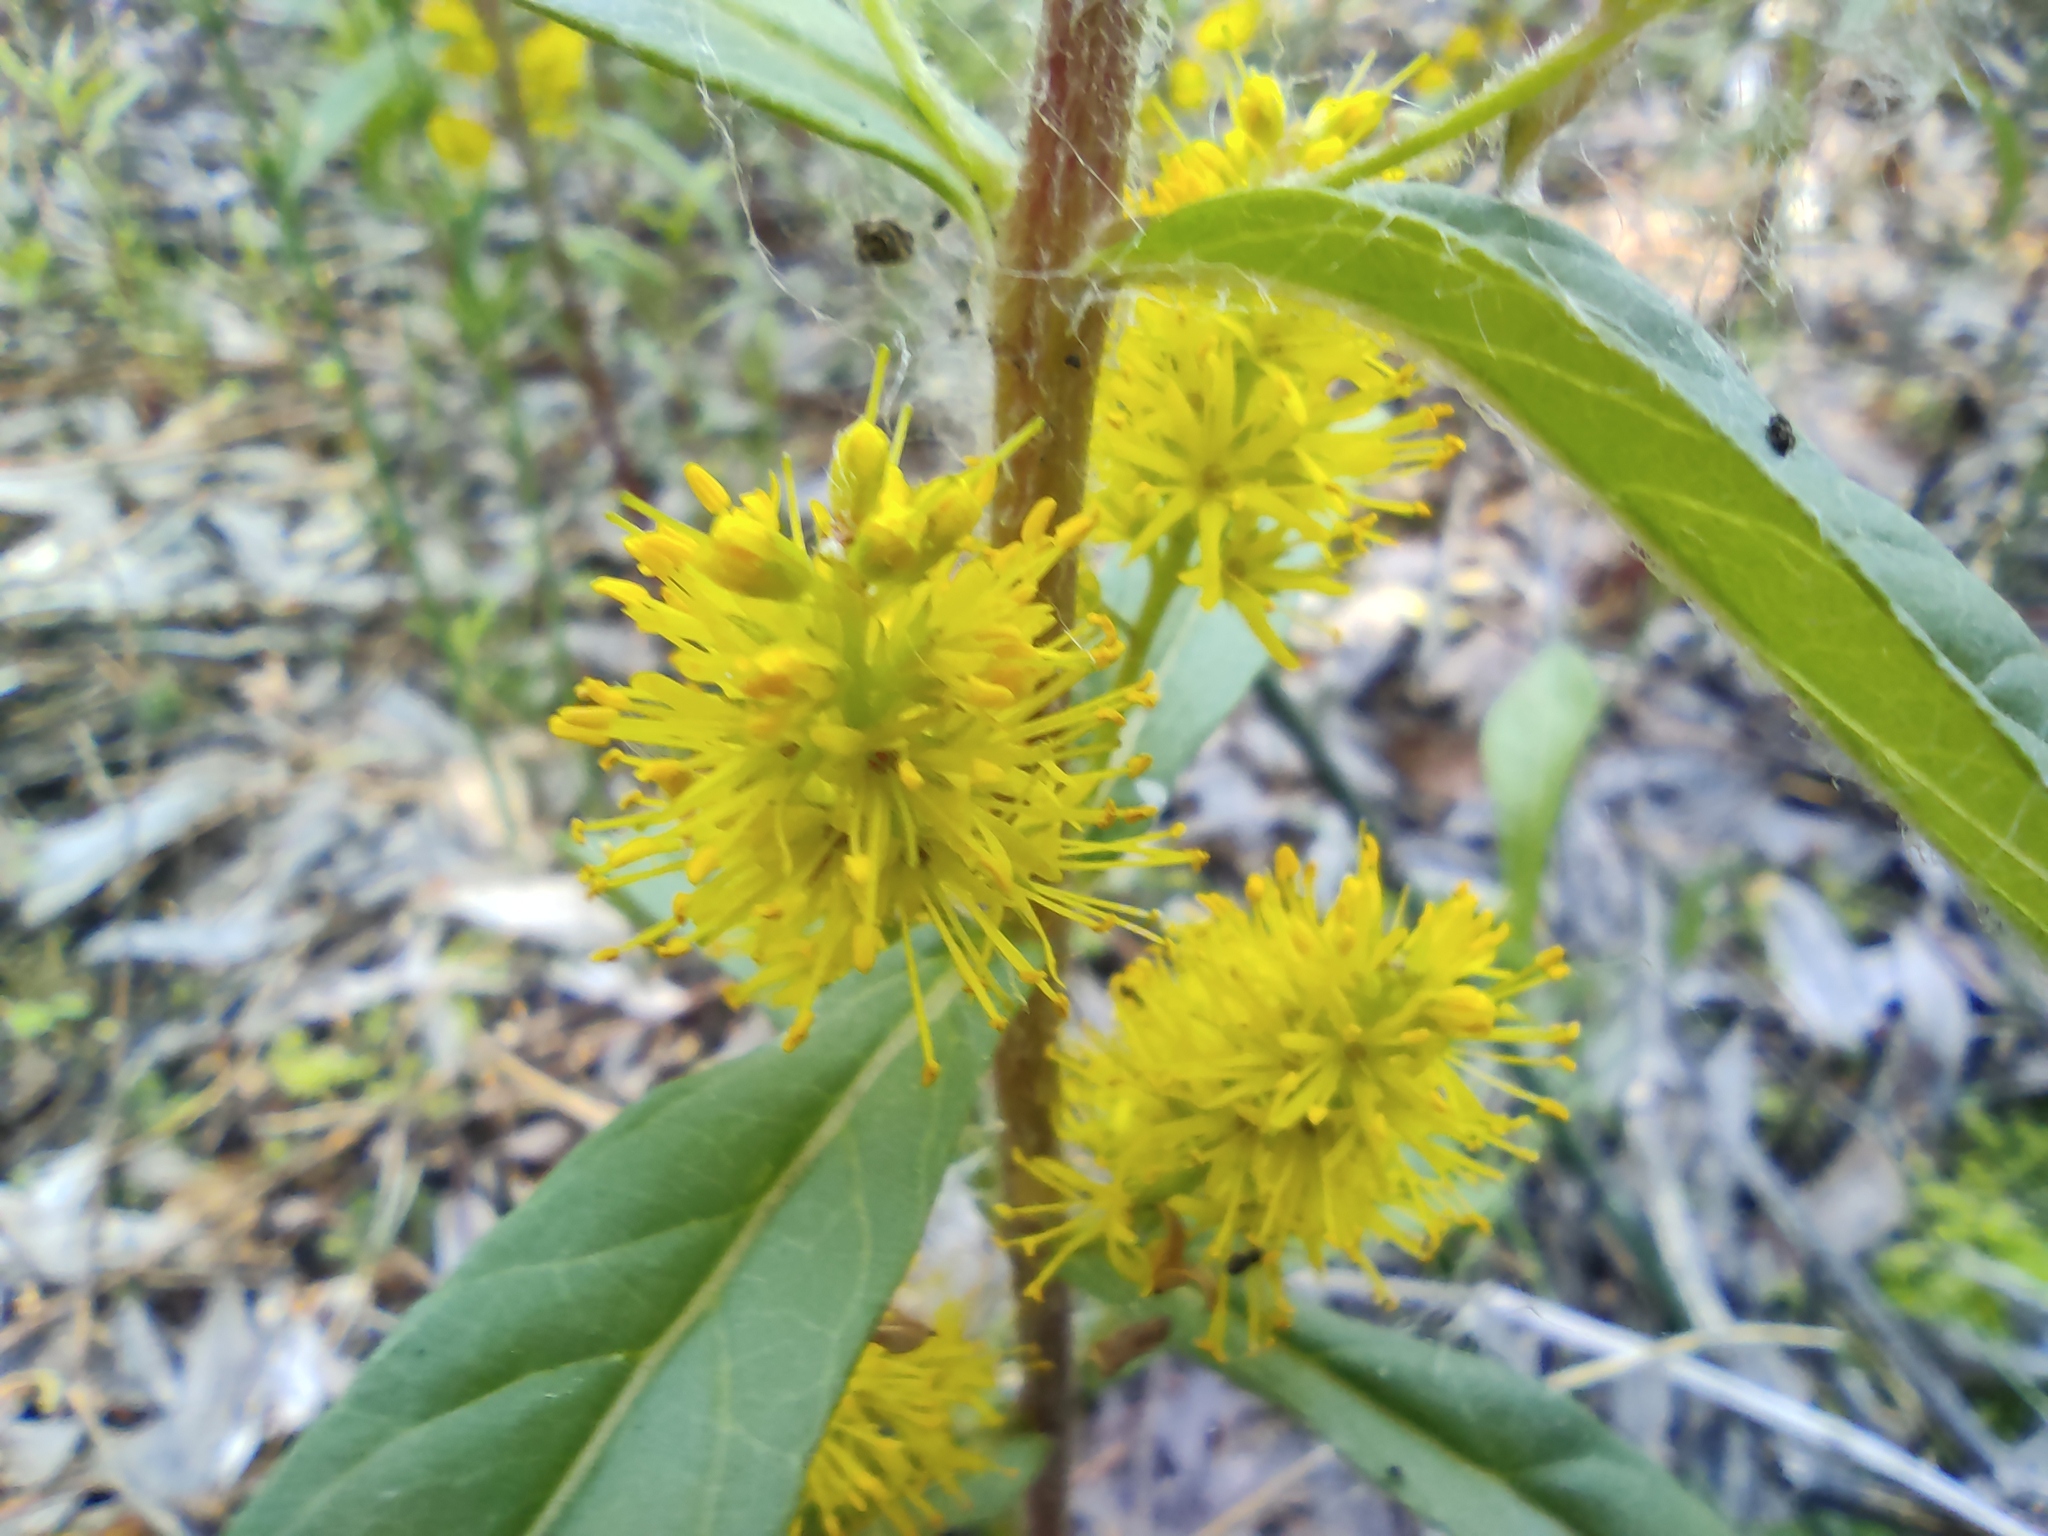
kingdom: Plantae
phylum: Tracheophyta
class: Magnoliopsida
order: Ericales
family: Primulaceae
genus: Lysimachia
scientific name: Lysimachia thyrsiflora
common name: Tufted loosestrife
